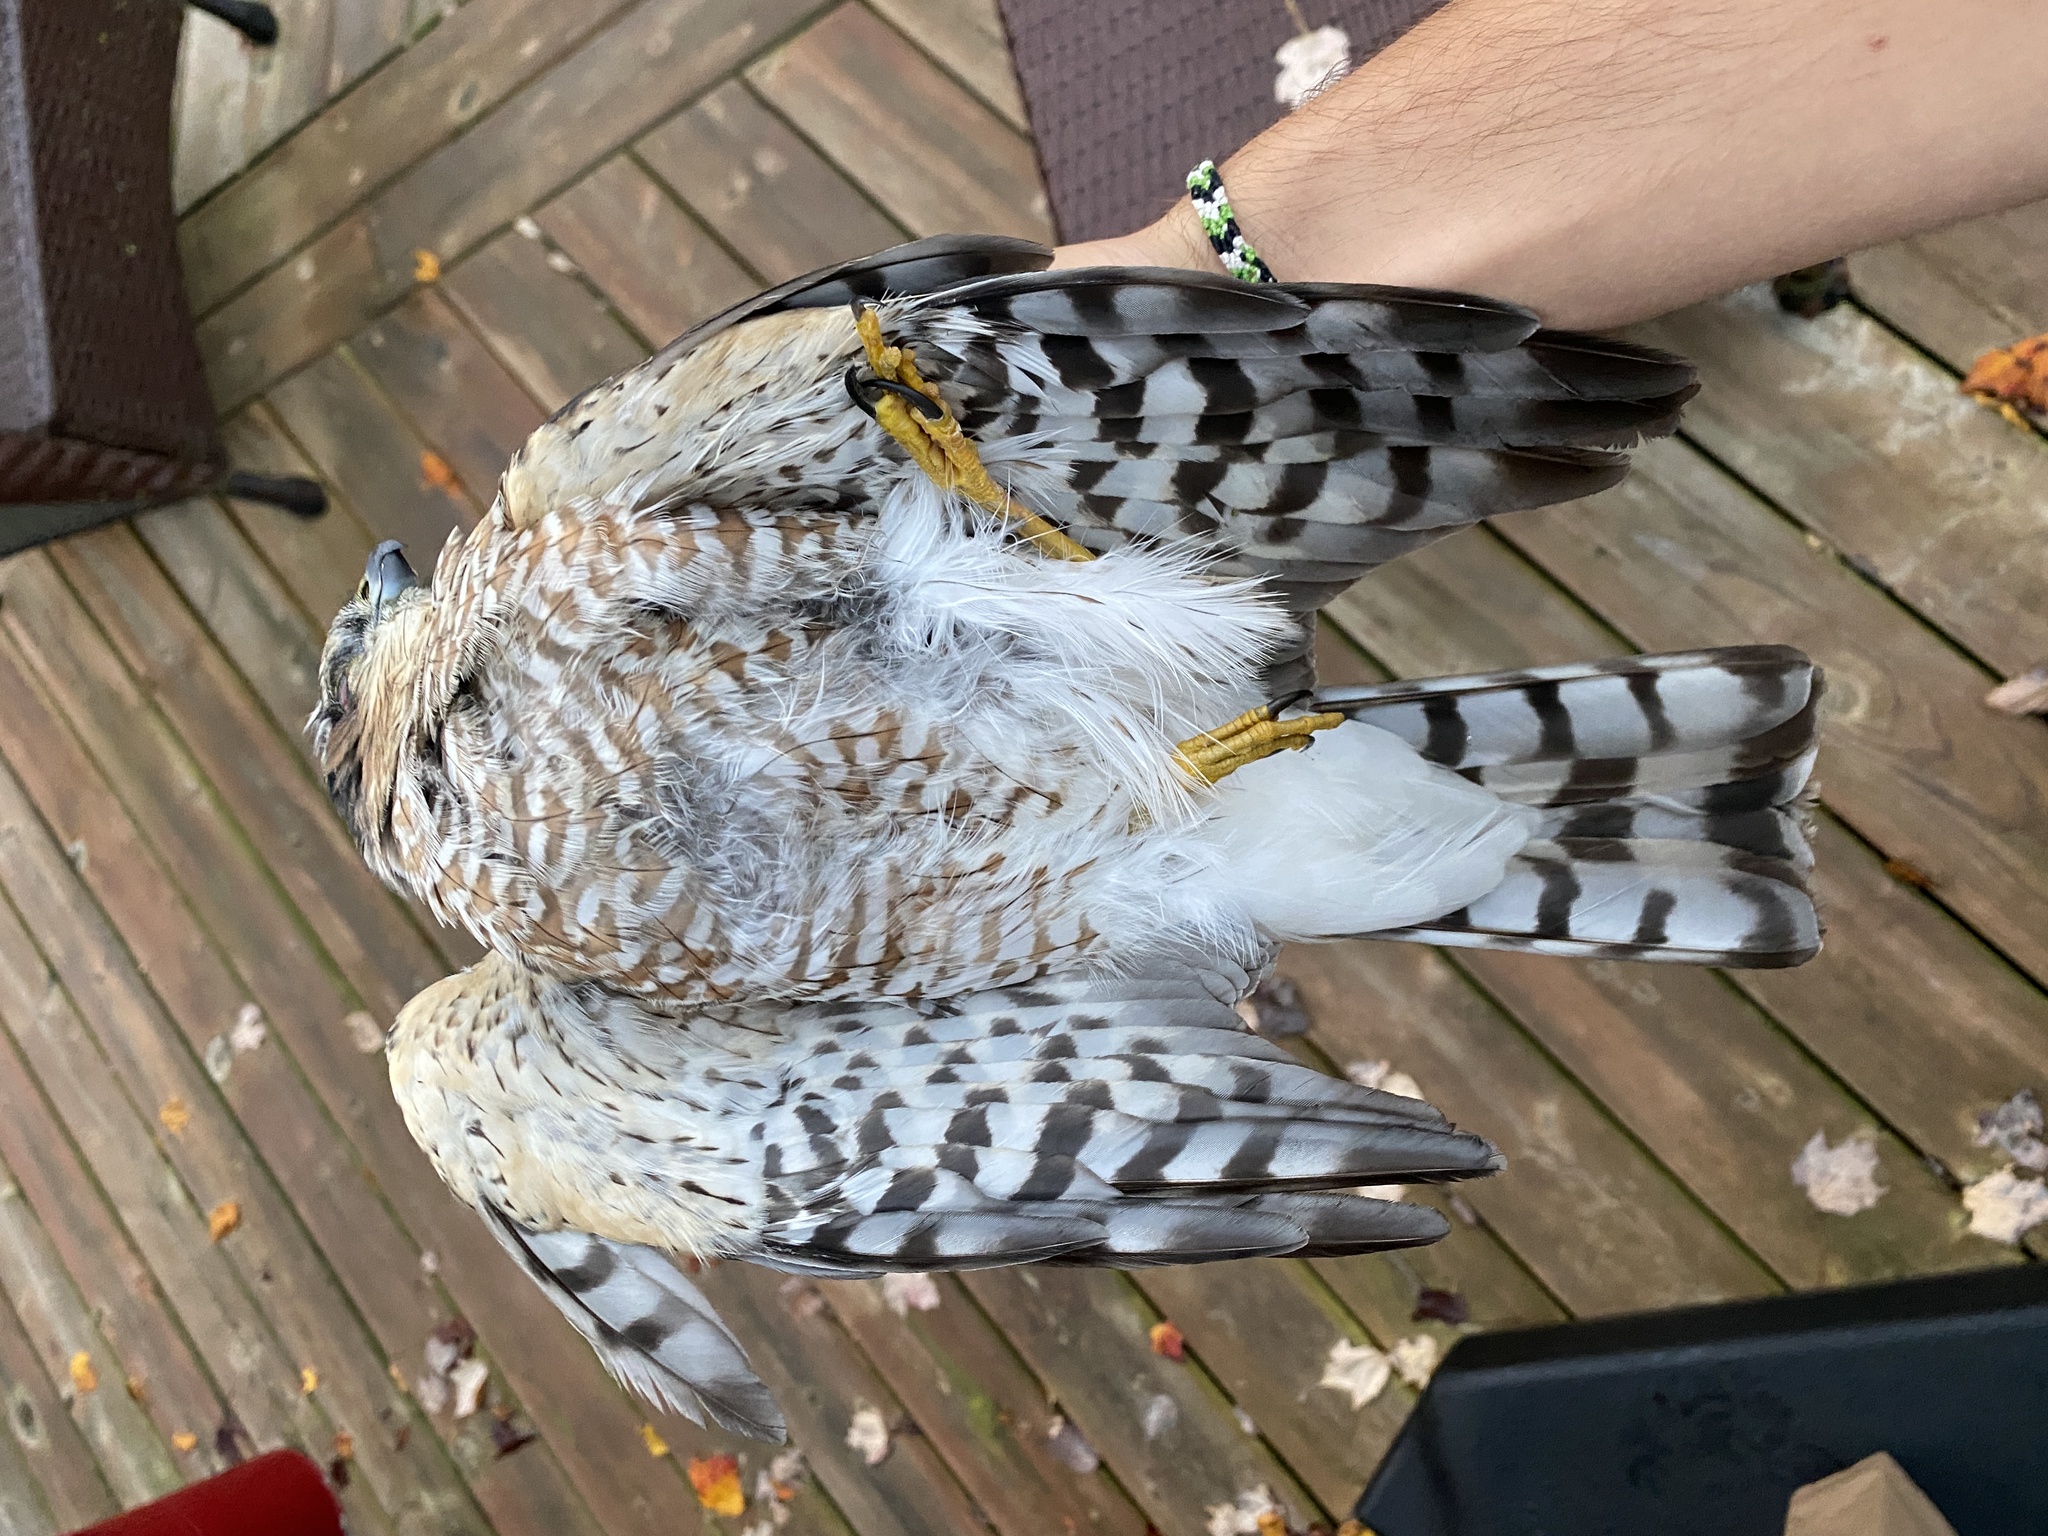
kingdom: Animalia
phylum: Chordata
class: Aves
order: Accipitriformes
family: Accipitridae
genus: Accipiter
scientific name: Accipiter striatus
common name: Sharp-shinned hawk
